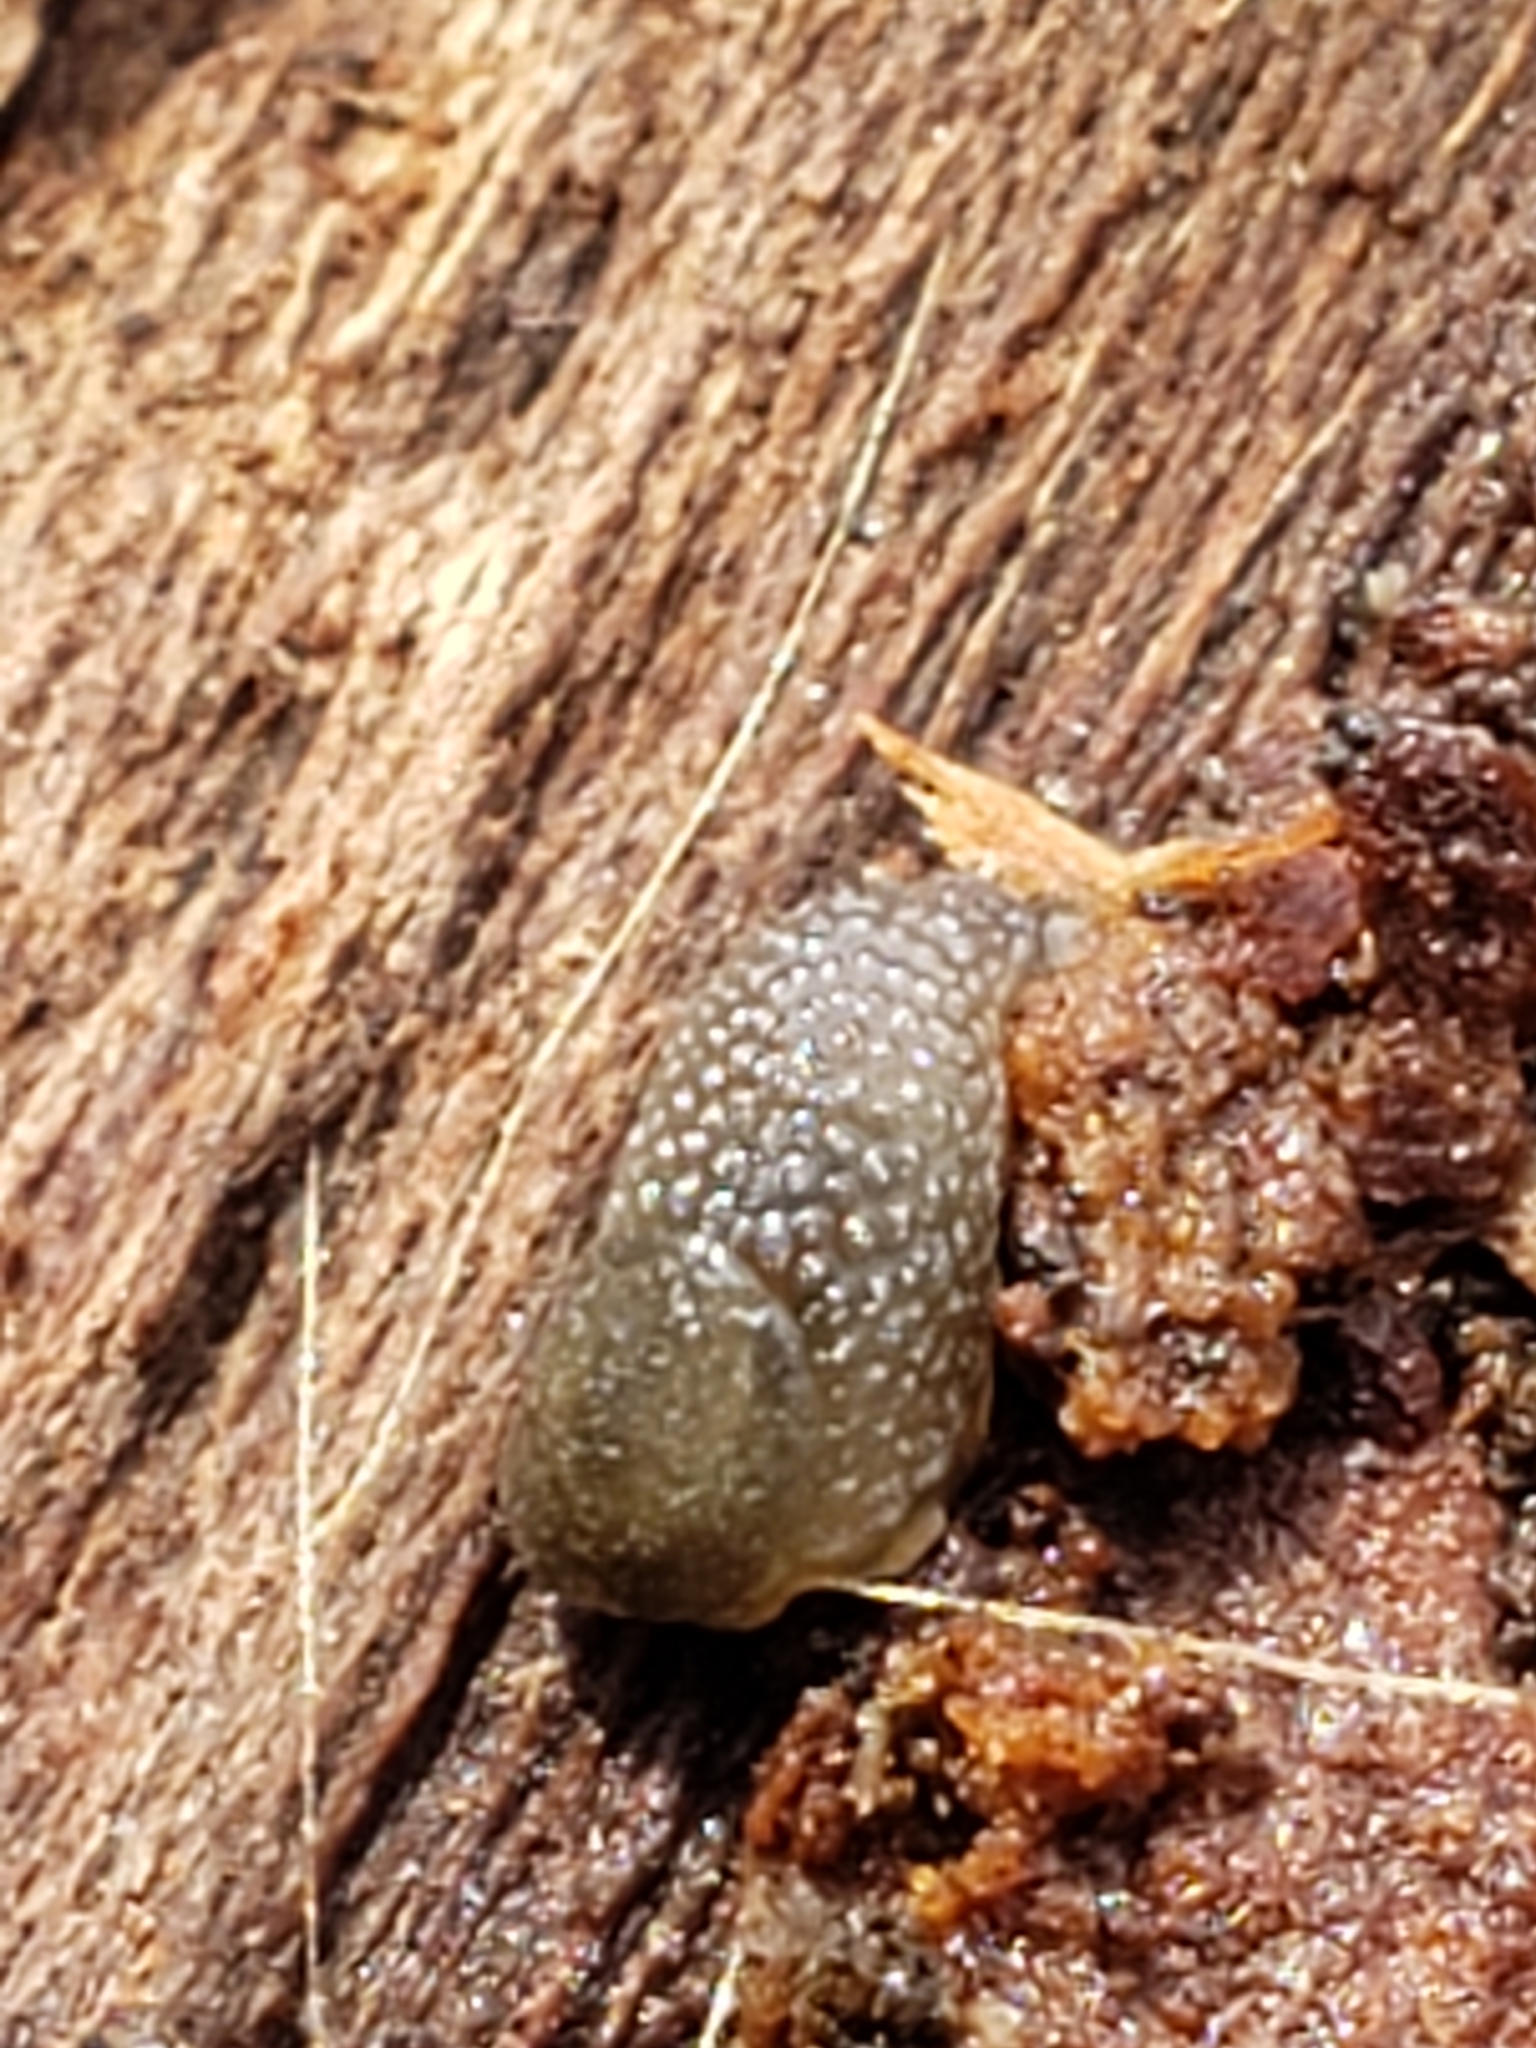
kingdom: Animalia
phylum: Mollusca
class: Gastropoda
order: Stylommatophora
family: Arionidae
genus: Arion
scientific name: Arion intermedius
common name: Hedgehog slug
